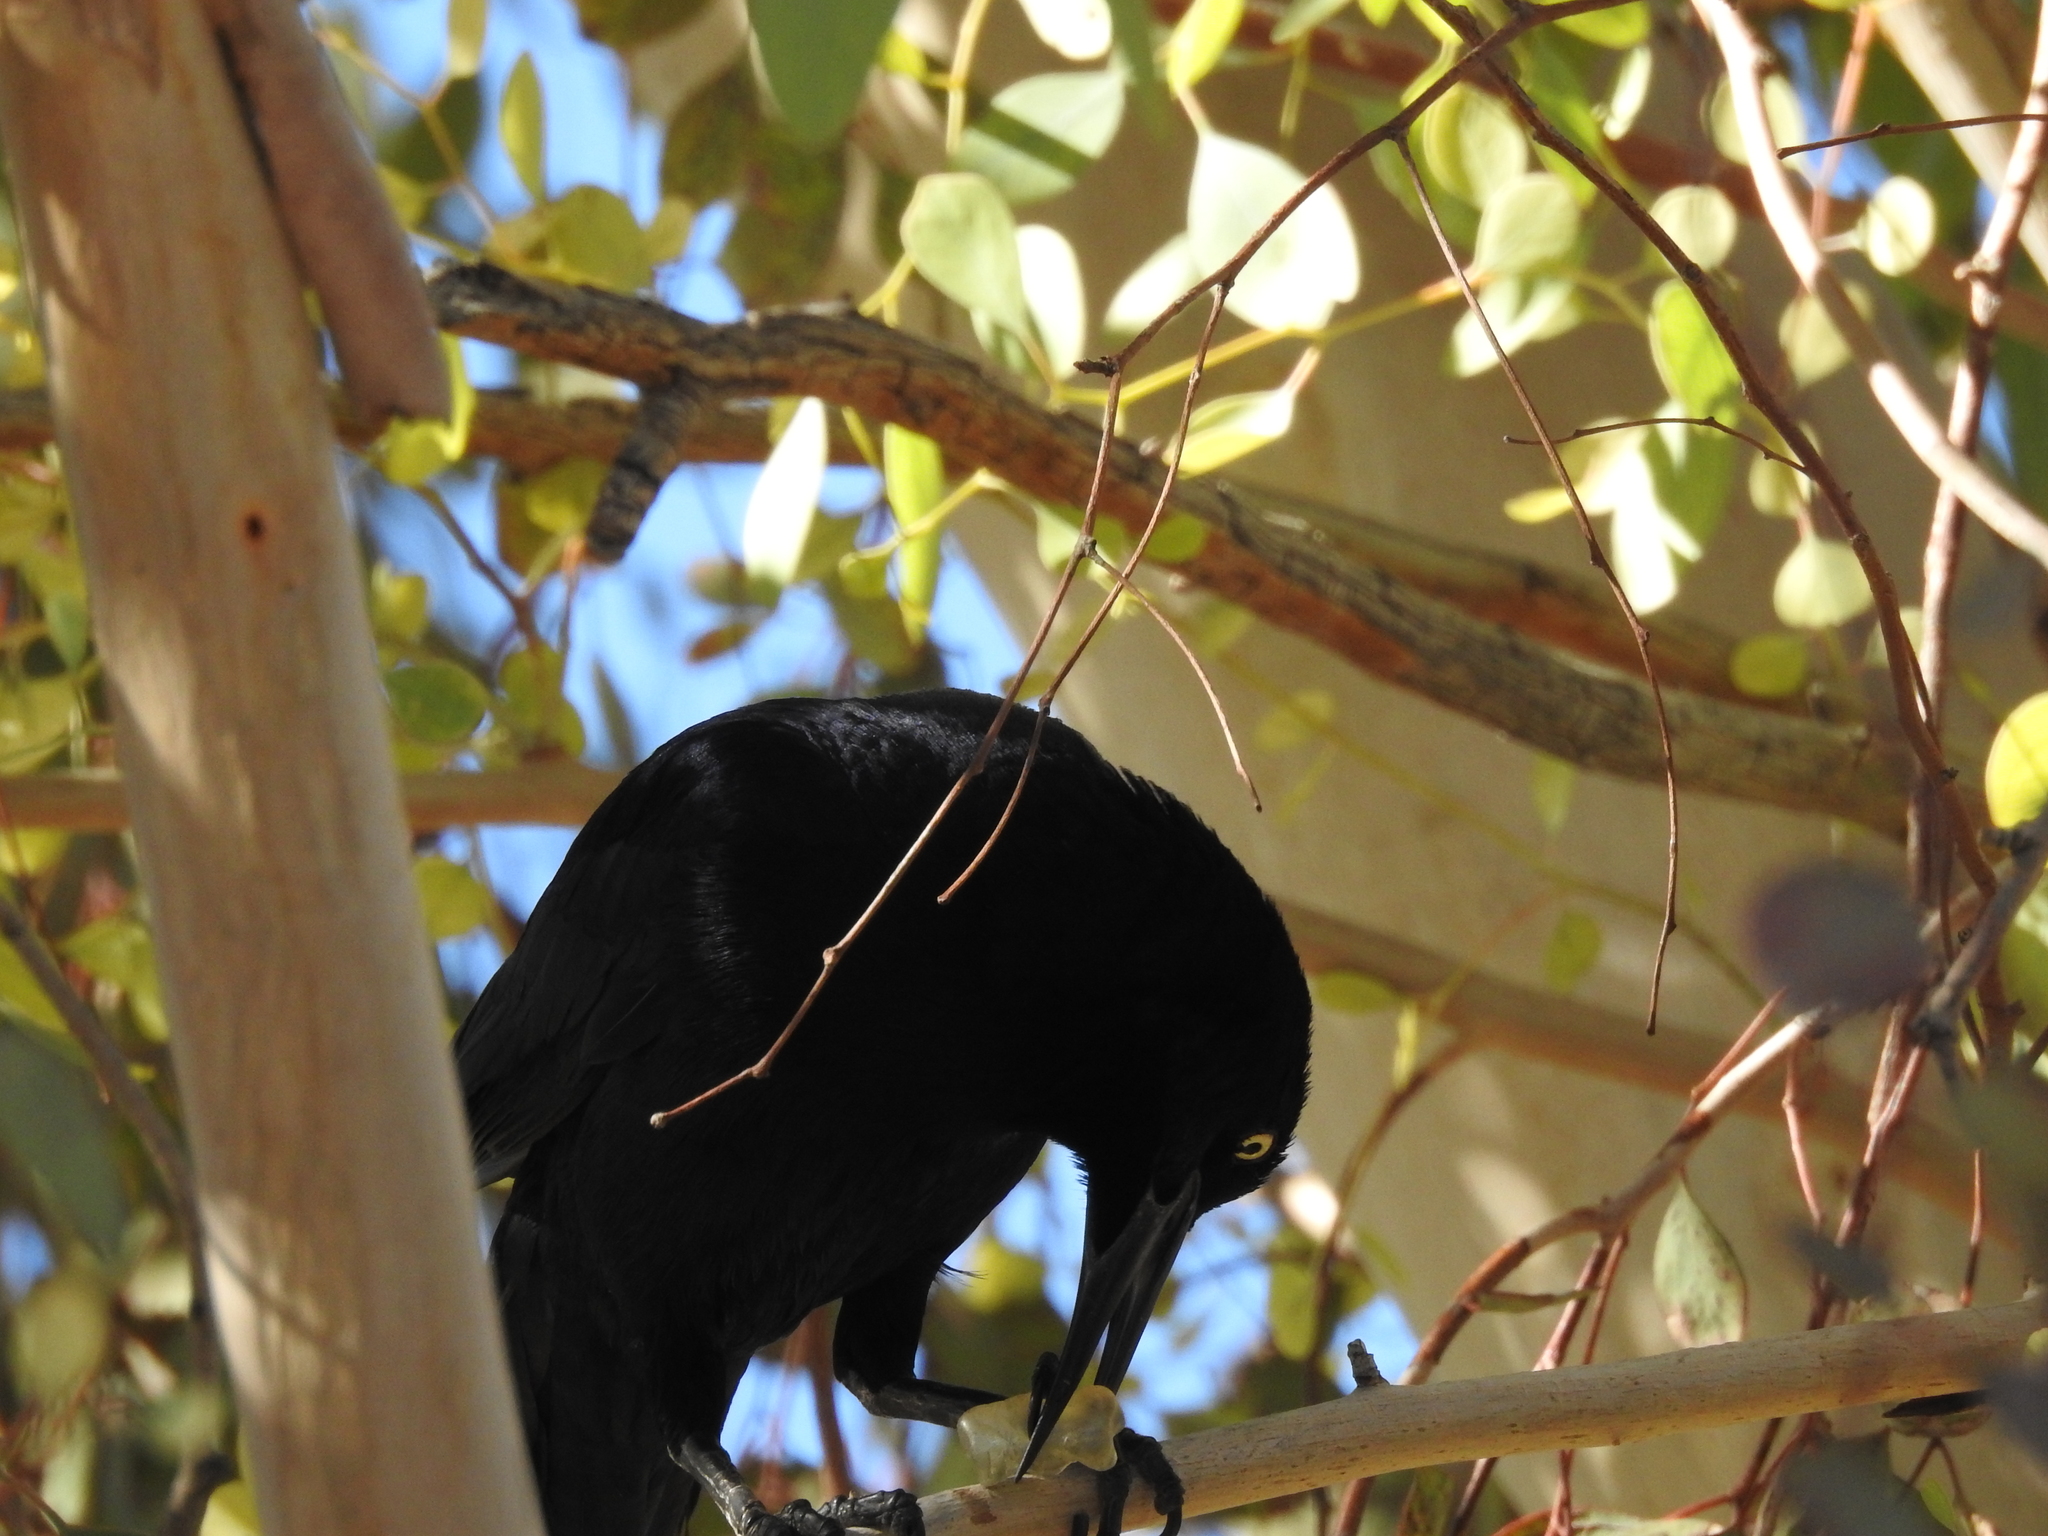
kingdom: Animalia
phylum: Chordata
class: Aves
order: Passeriformes
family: Icteridae
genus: Quiscalus
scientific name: Quiscalus mexicanus
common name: Great-tailed grackle
